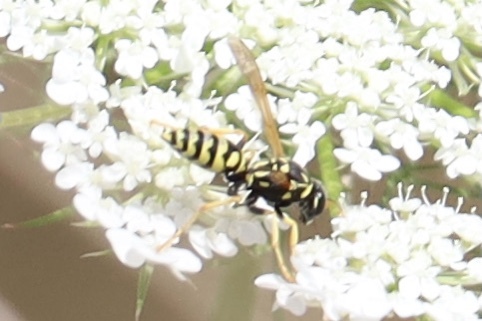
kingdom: Animalia
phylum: Arthropoda
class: Insecta
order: Hymenoptera
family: Eumenidae
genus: Polistes
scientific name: Polistes dominula
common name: Paper wasp
